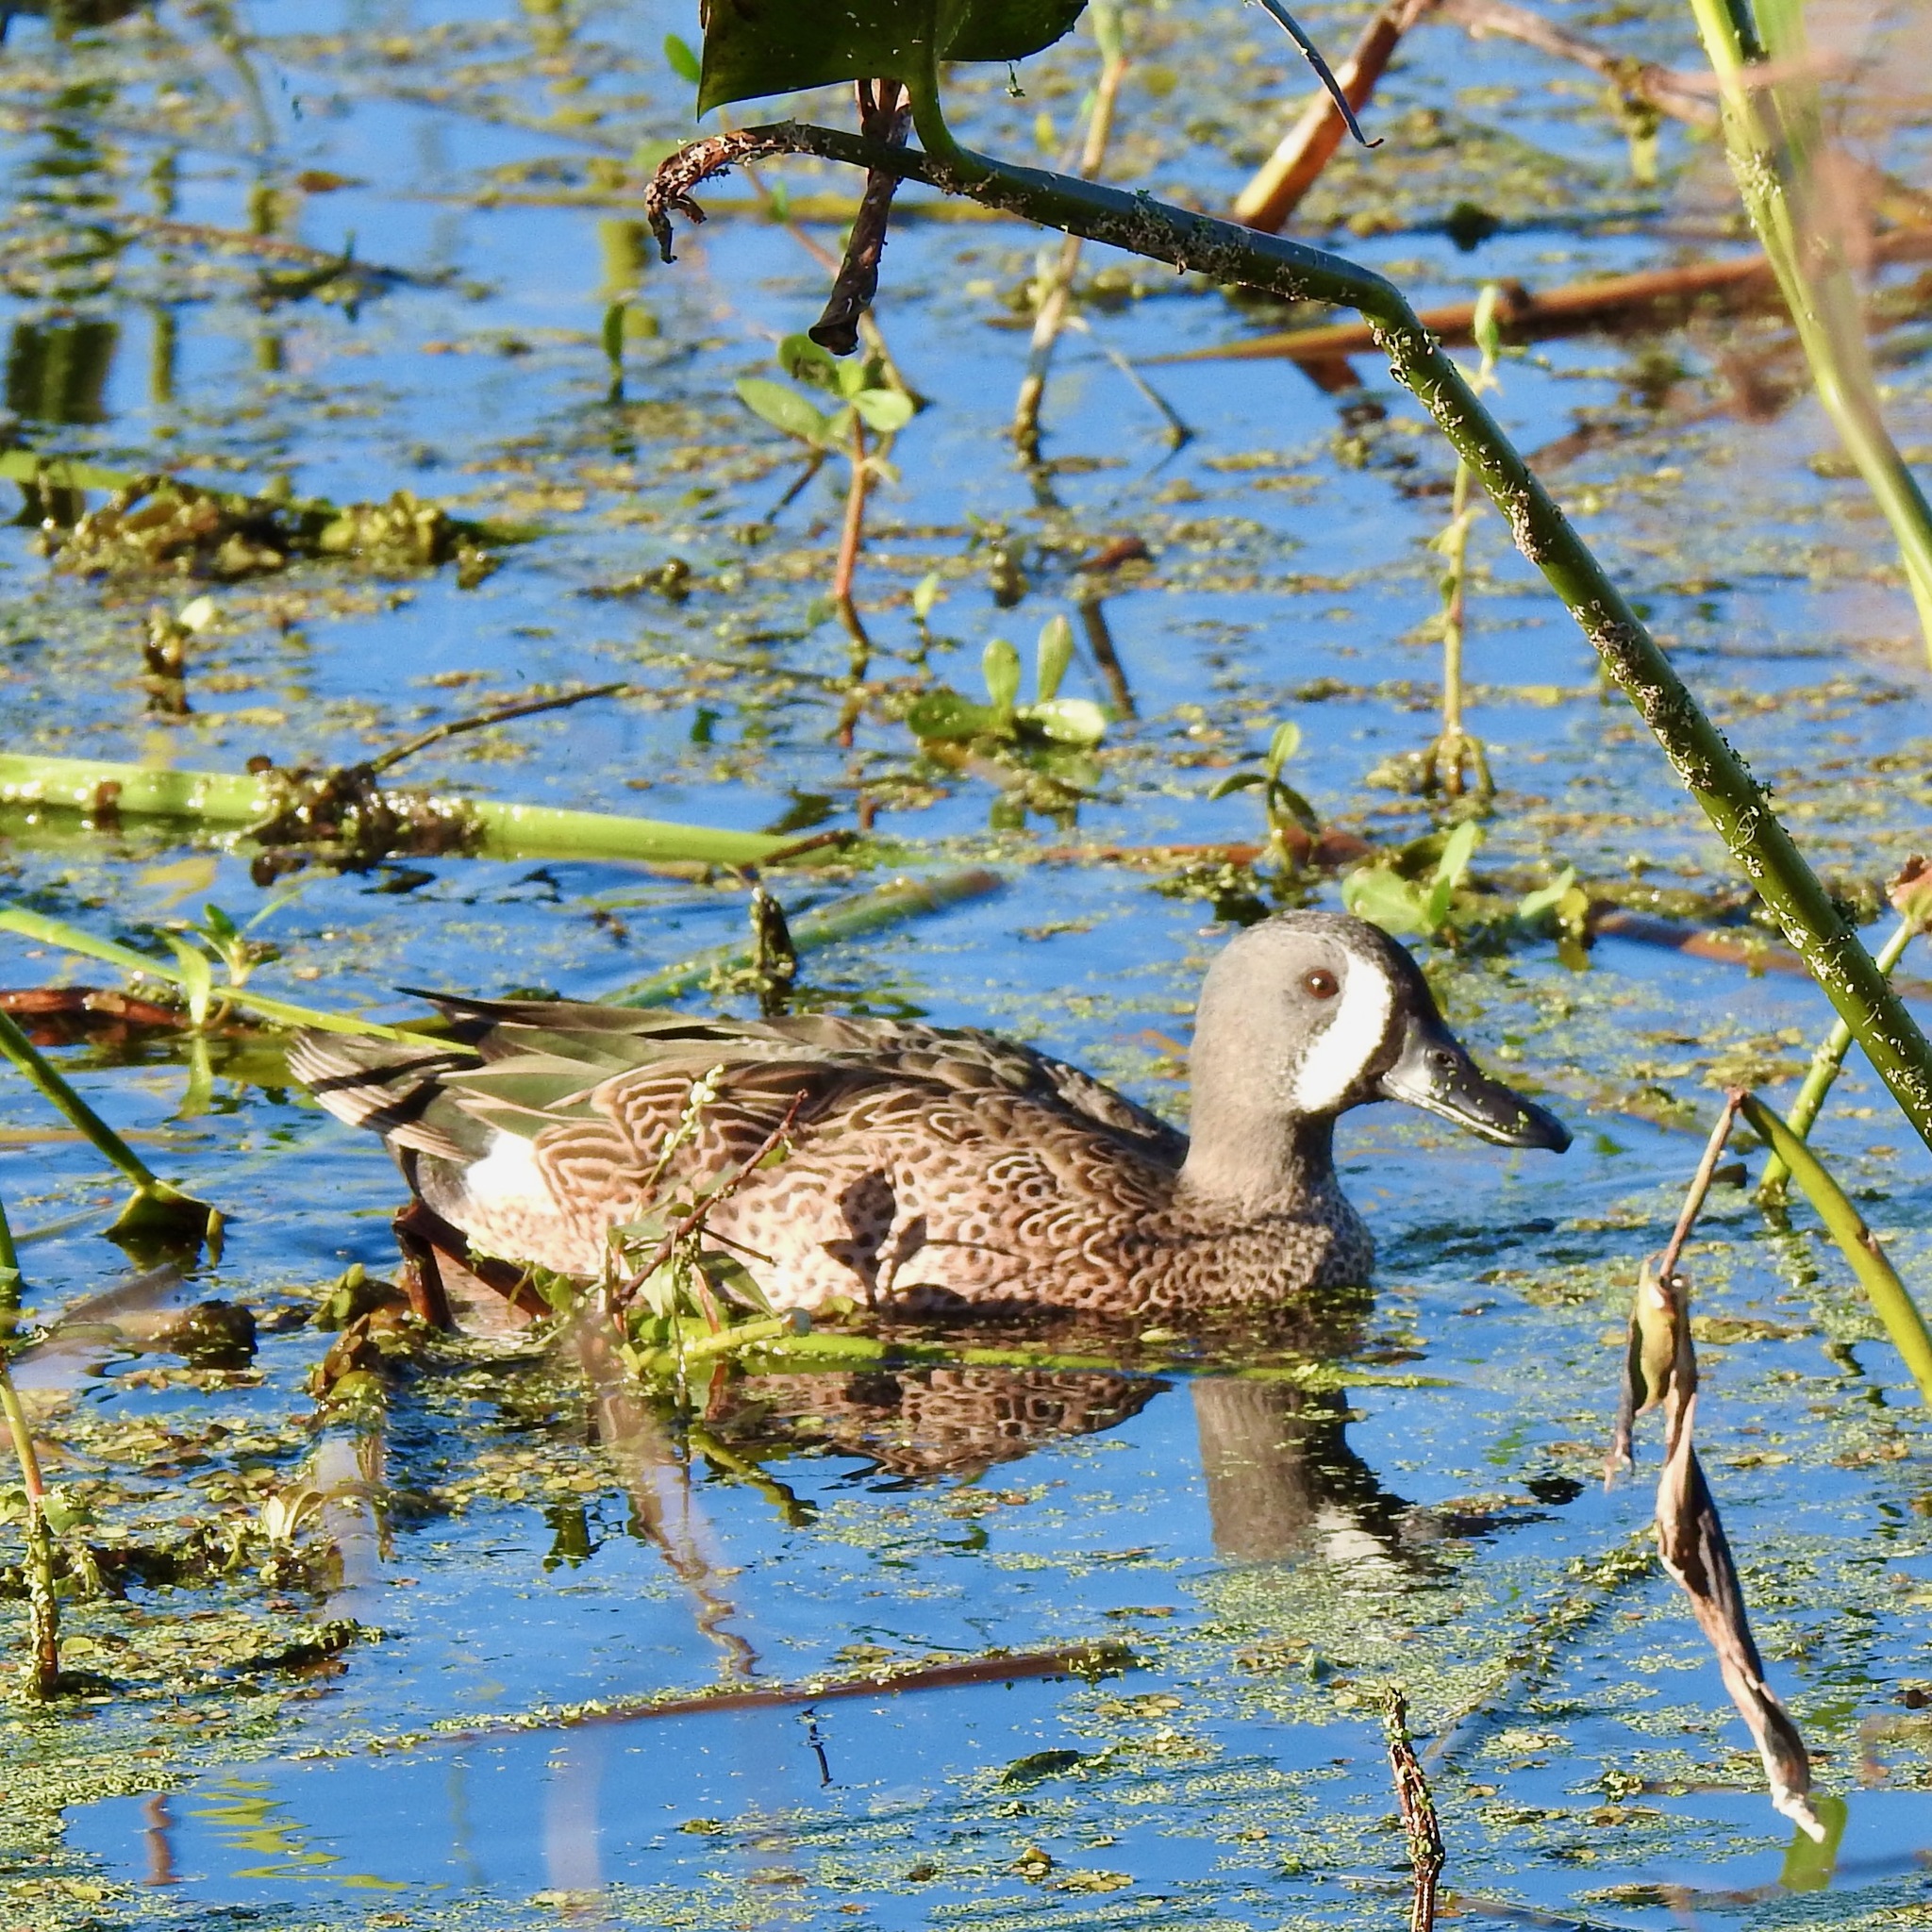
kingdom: Animalia
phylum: Chordata
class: Aves
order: Anseriformes
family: Anatidae
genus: Spatula
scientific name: Spatula discors
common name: Blue-winged teal
